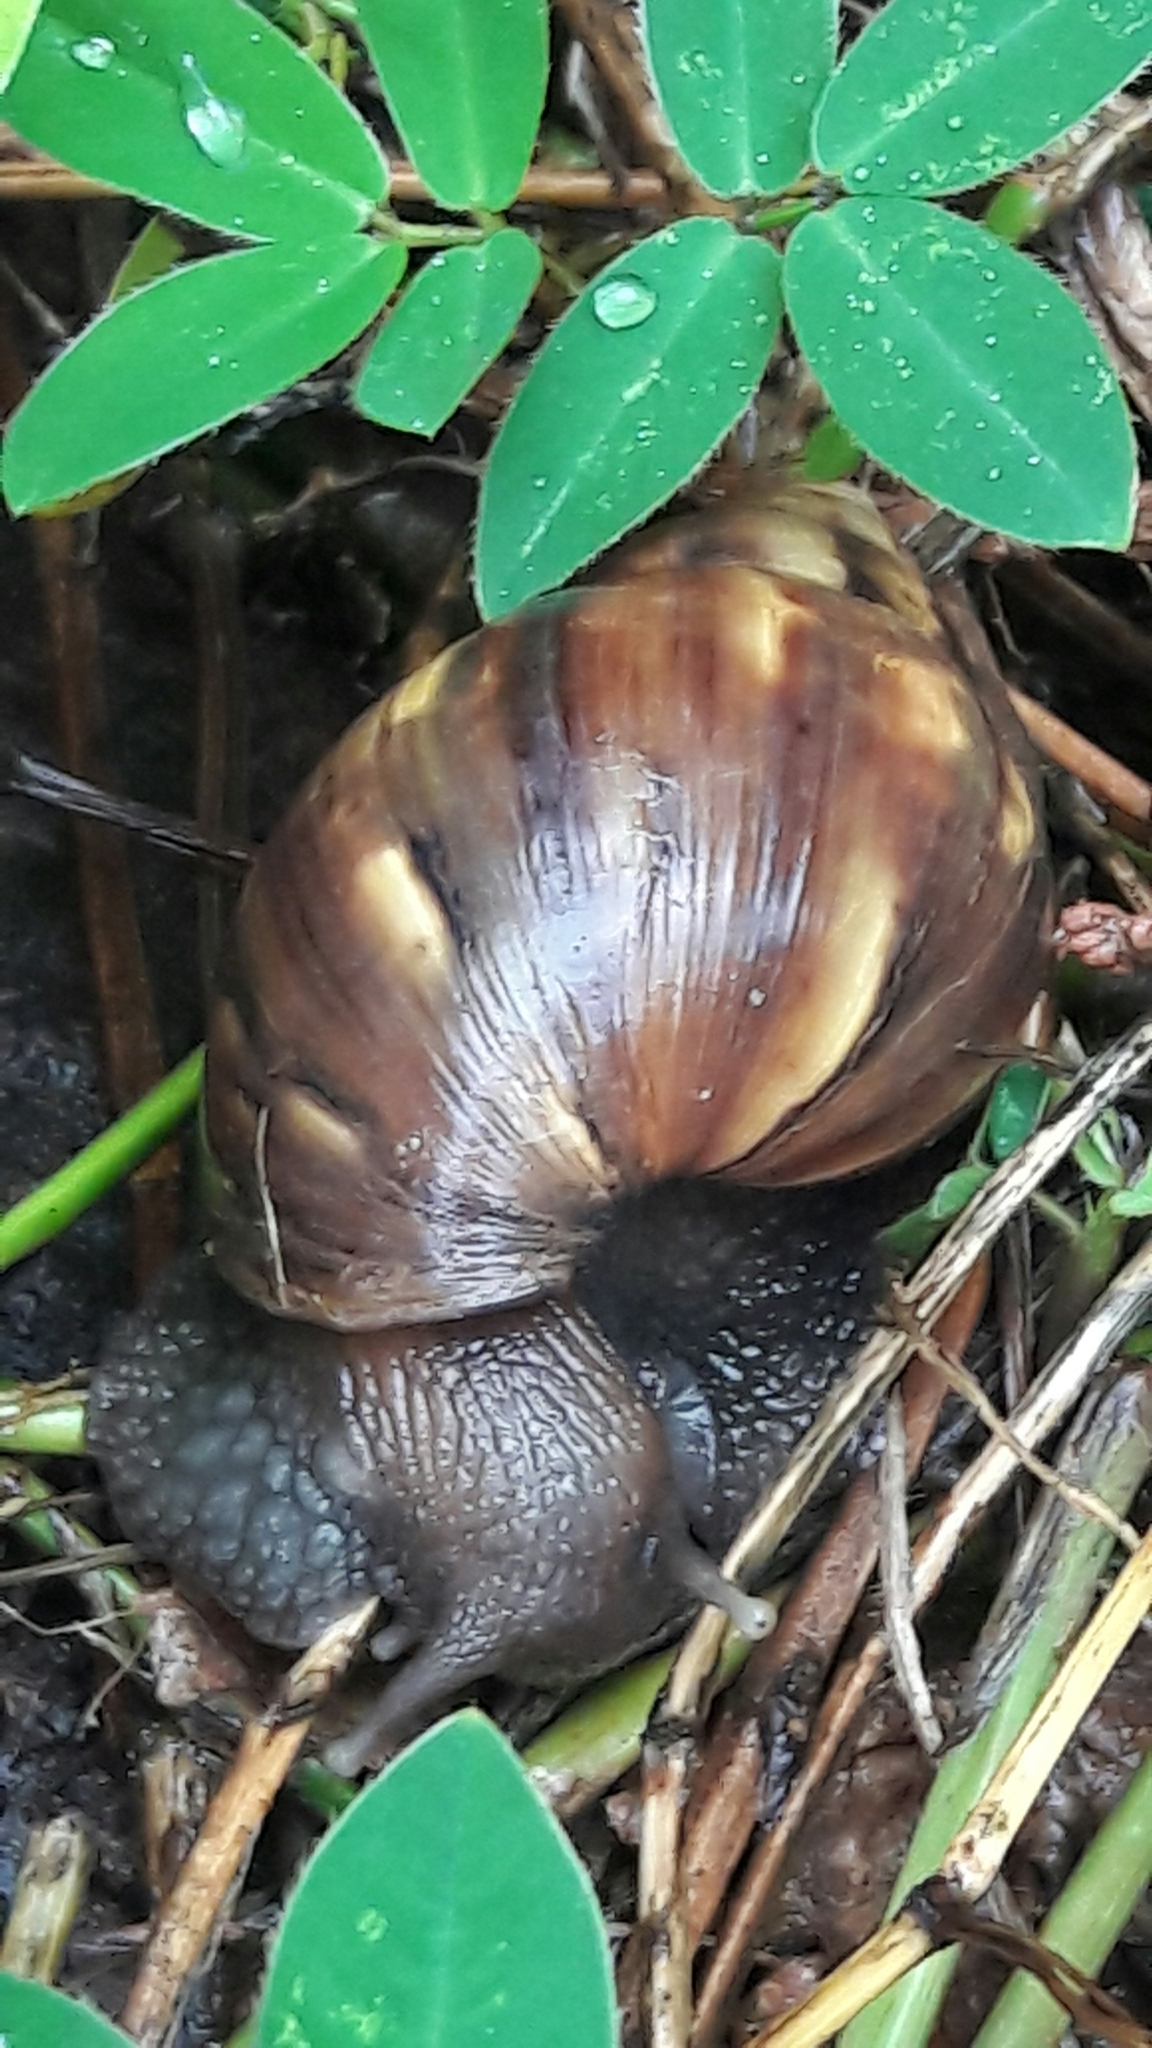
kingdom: Animalia
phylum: Mollusca
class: Gastropoda
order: Stylommatophora
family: Achatinidae
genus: Lissachatina
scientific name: Lissachatina fulica
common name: Giant african snail
